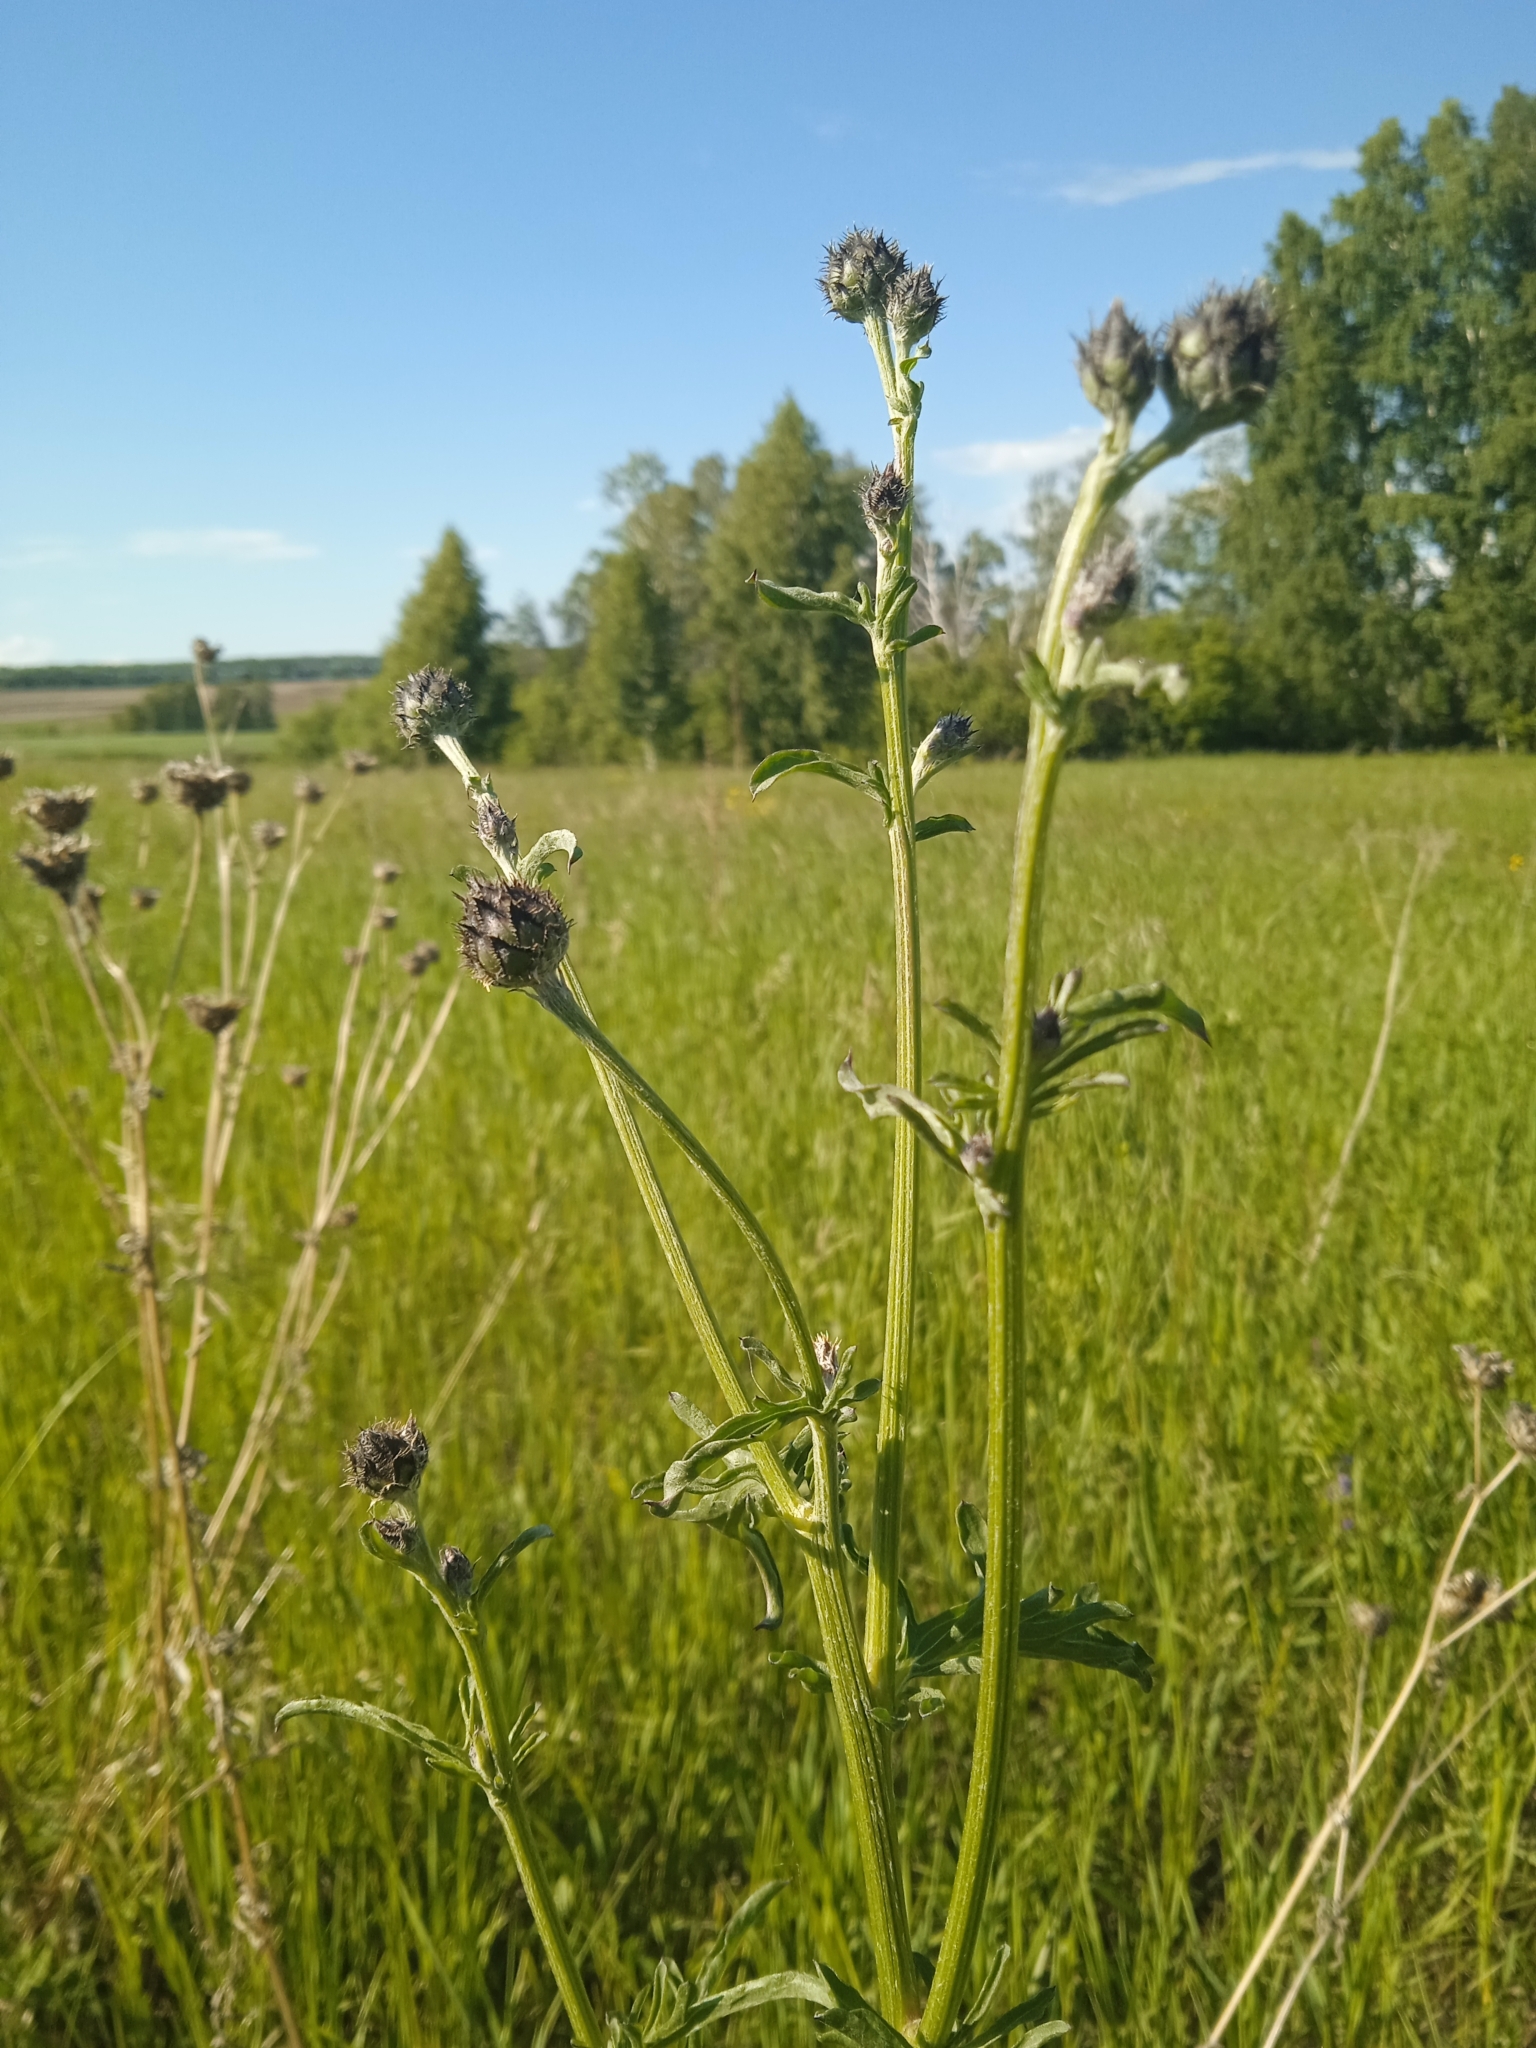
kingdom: Plantae
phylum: Tracheophyta
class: Magnoliopsida
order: Asterales
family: Asteraceae
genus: Centaurea
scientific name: Centaurea scabiosa
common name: Greater knapweed
